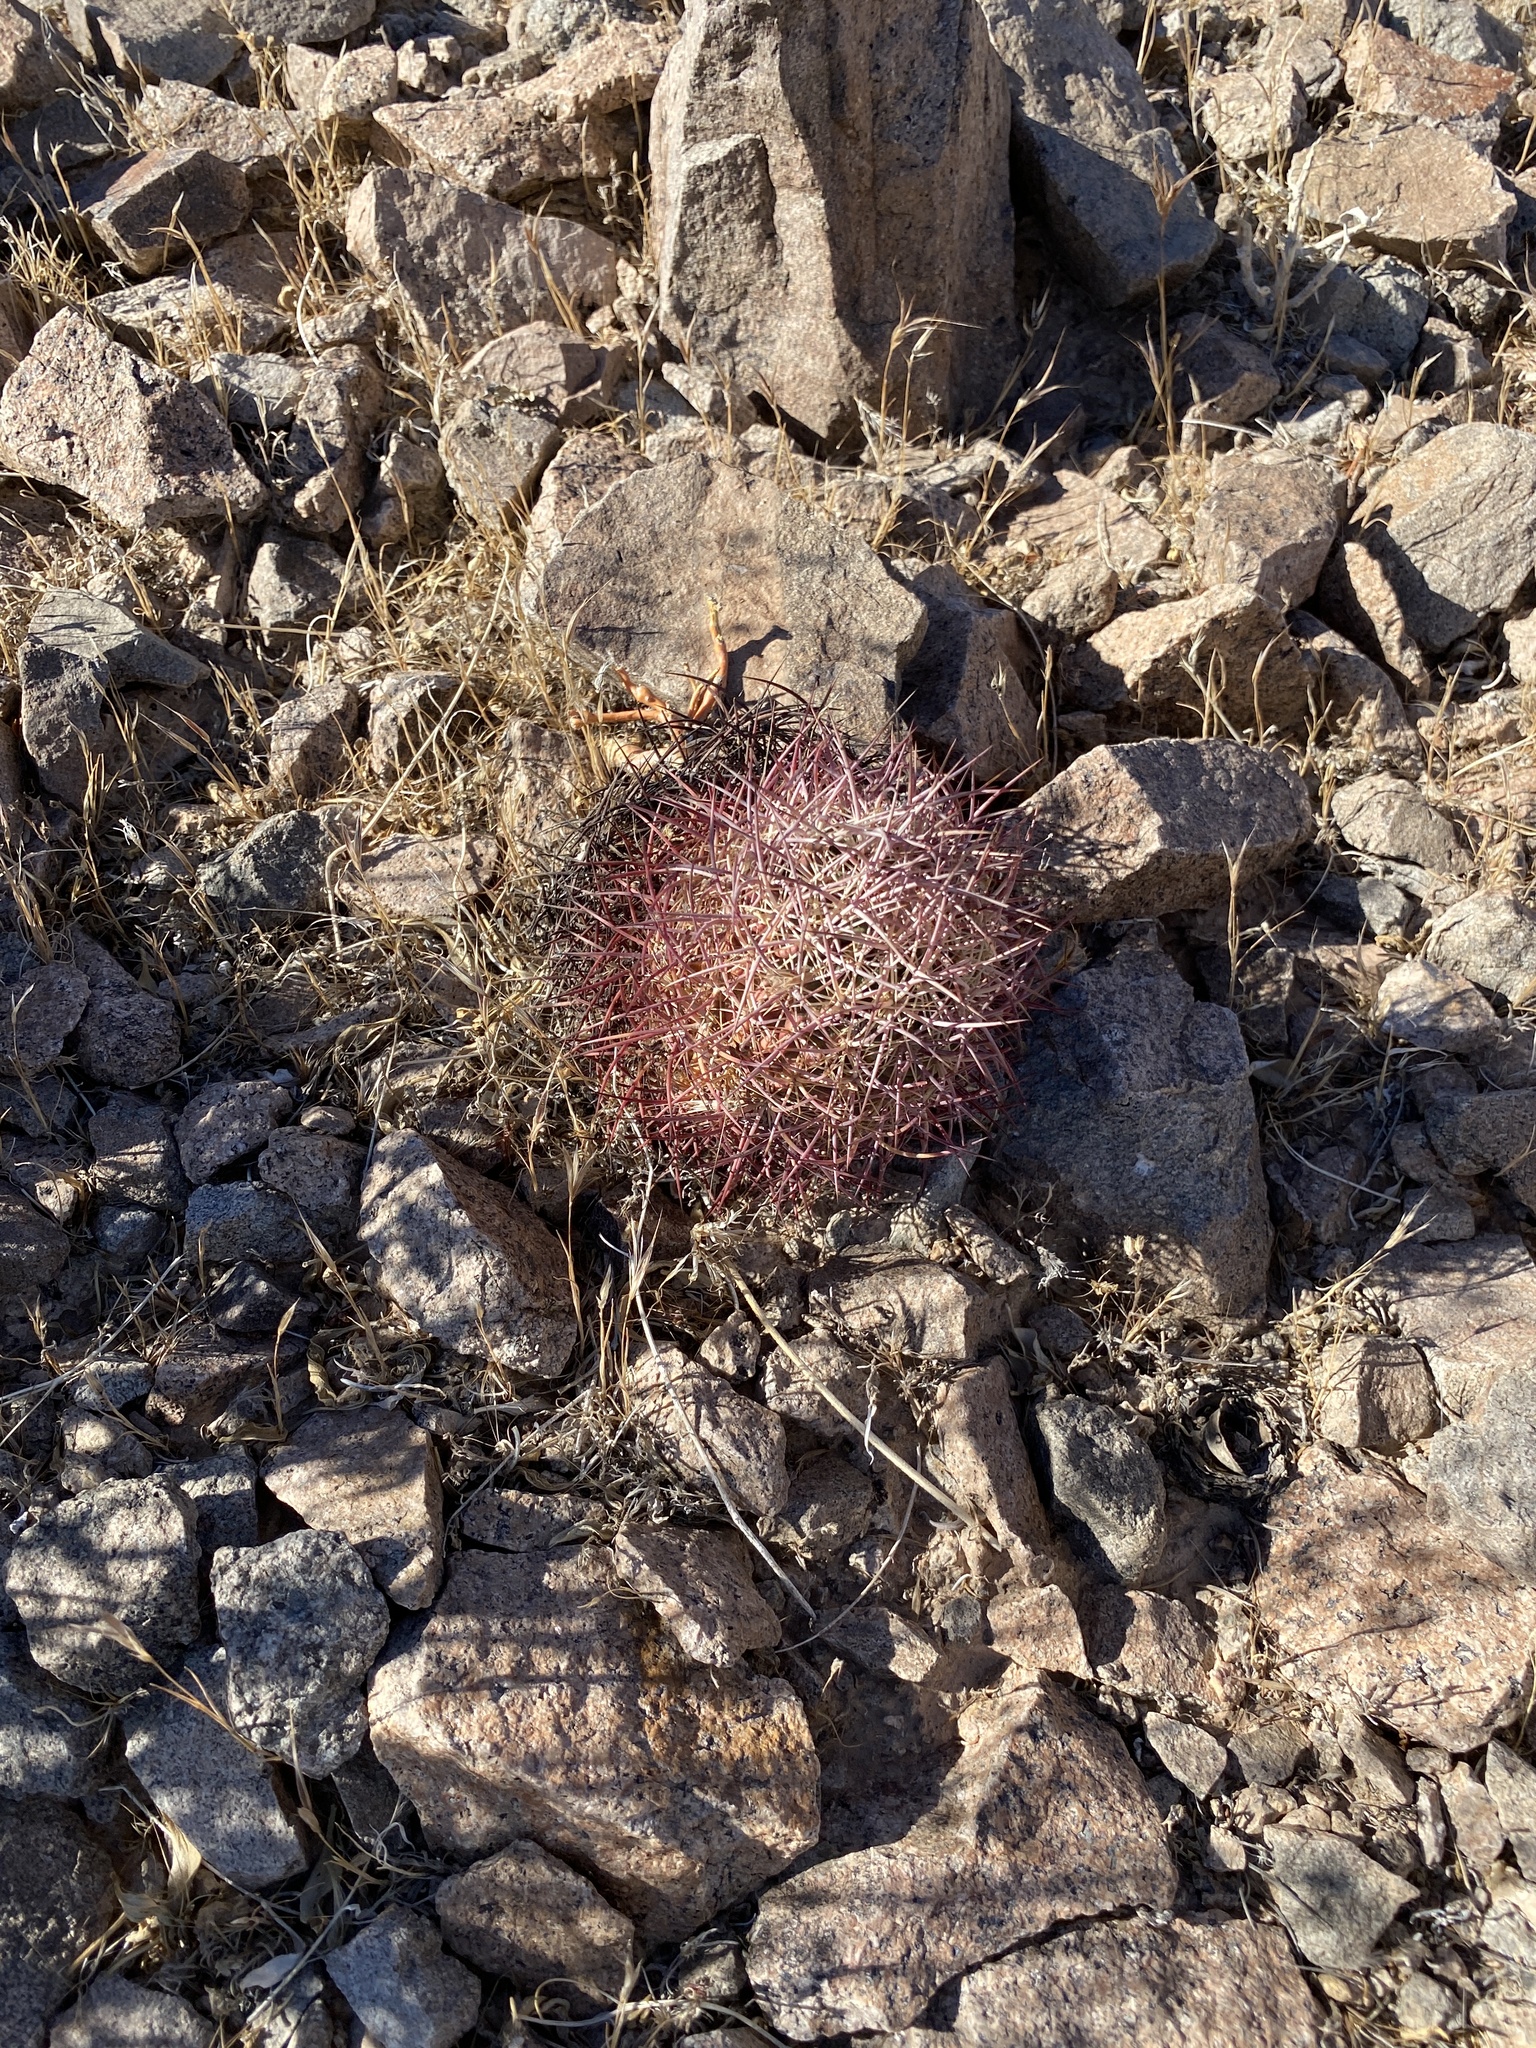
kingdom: Plantae
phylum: Tracheophyta
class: Magnoliopsida
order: Caryophyllales
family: Cactaceae
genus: Sclerocactus
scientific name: Sclerocactus johnsonii
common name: Eight-spine fishhook cactus
